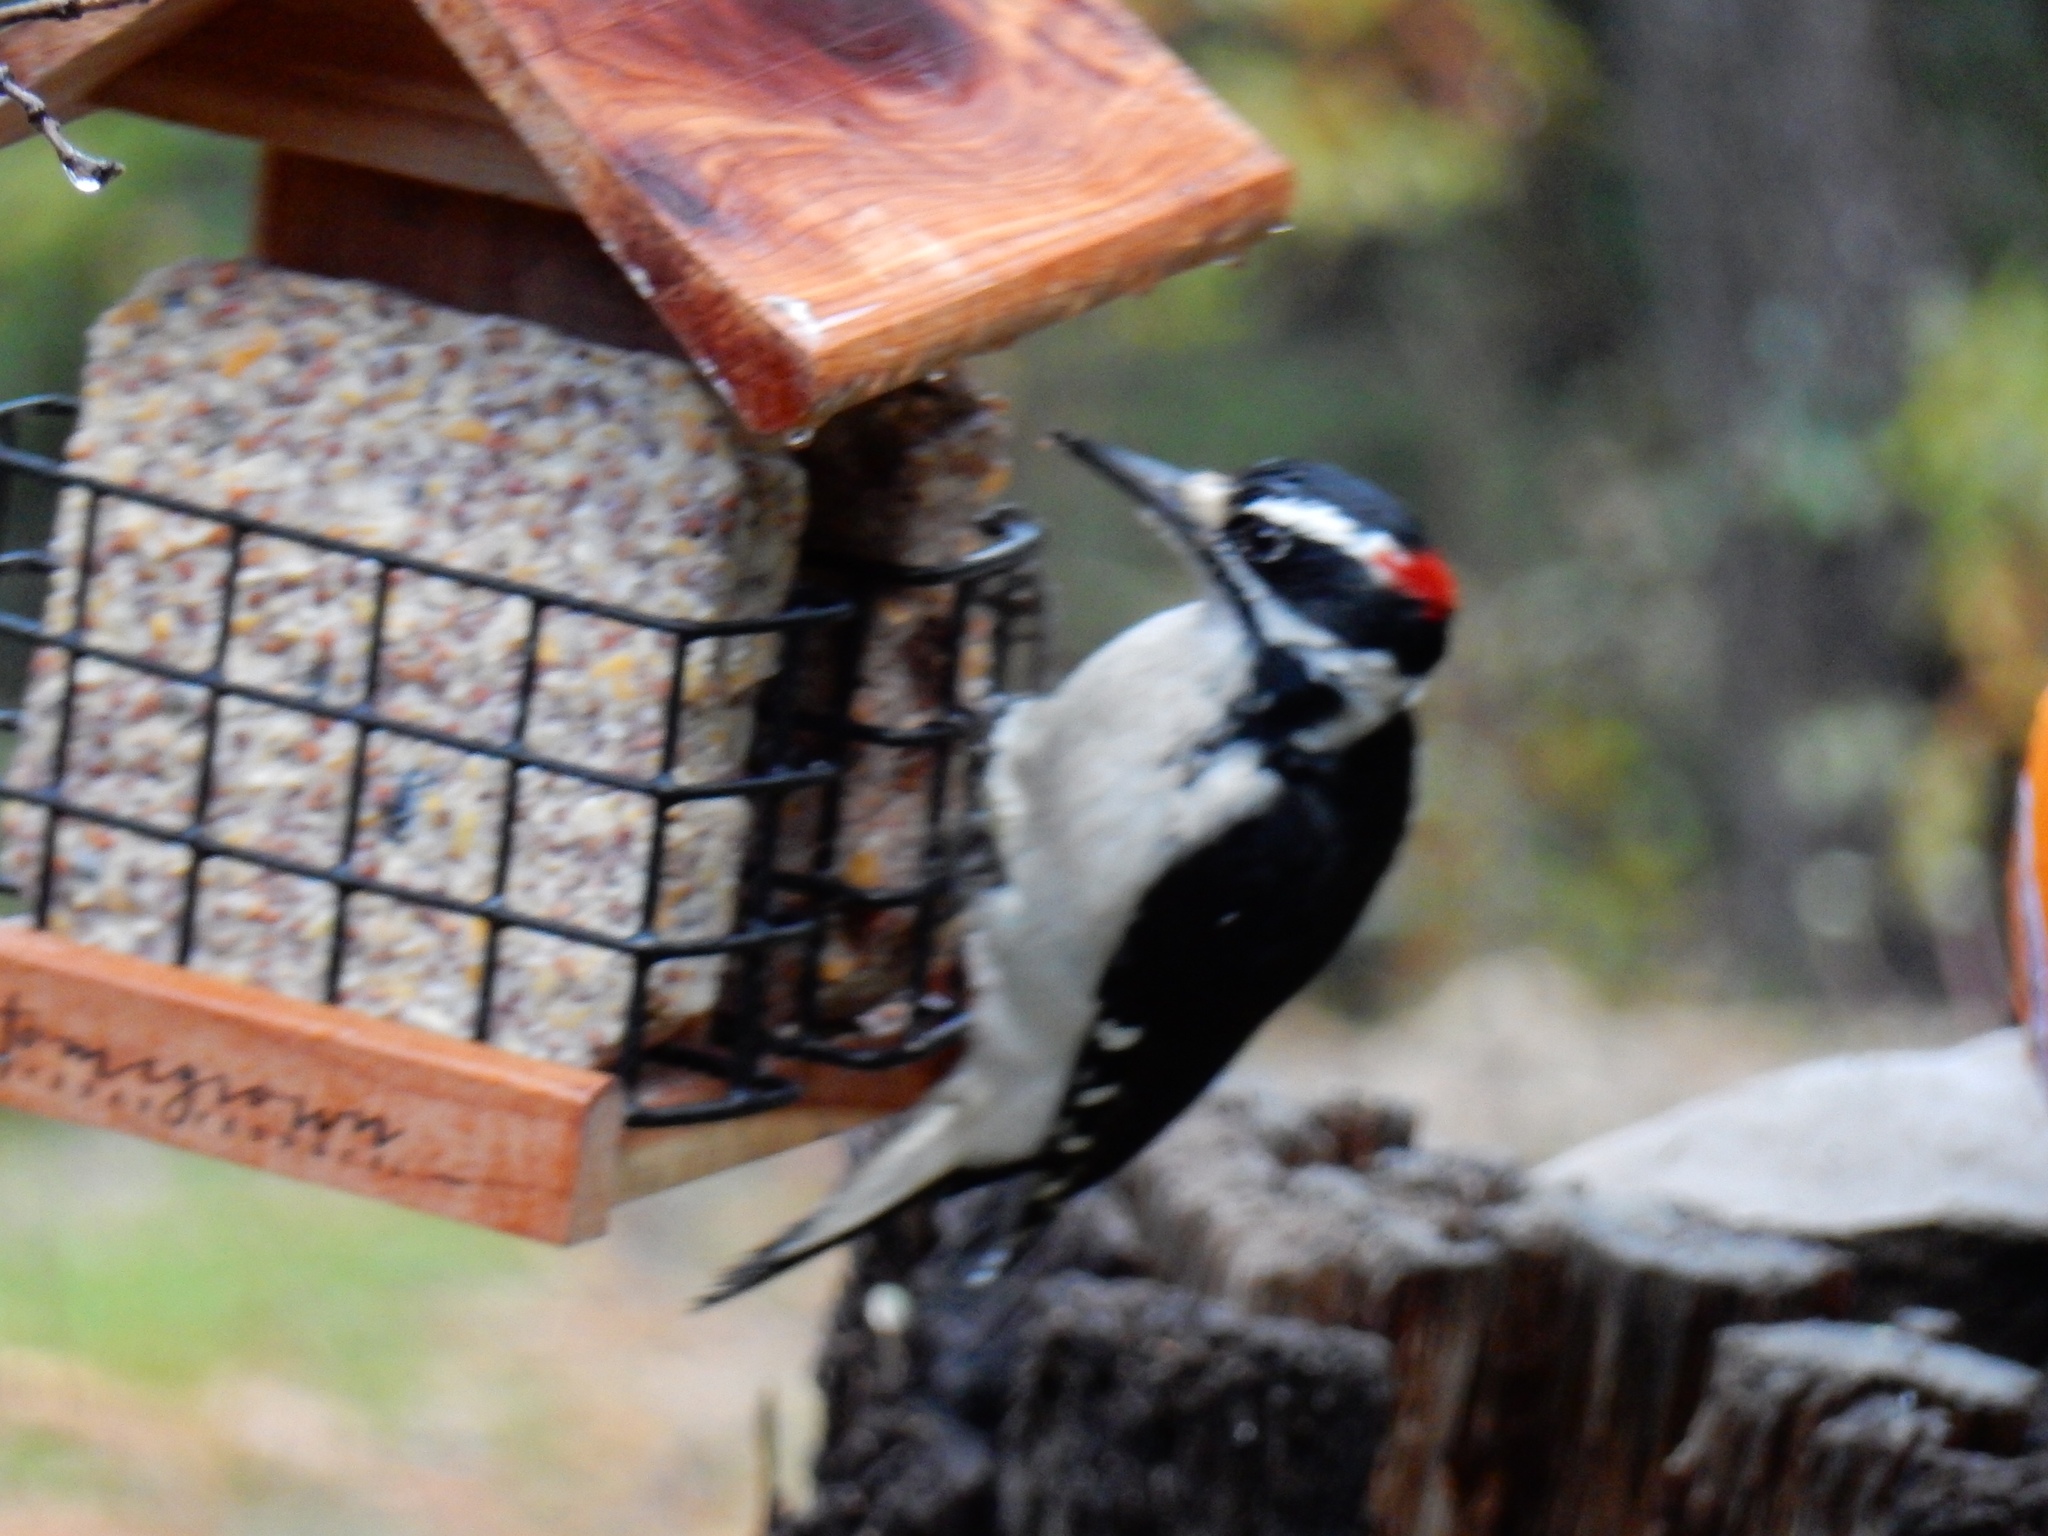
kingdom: Animalia
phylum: Chordata
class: Aves
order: Piciformes
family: Picidae
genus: Leuconotopicus
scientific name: Leuconotopicus villosus
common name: Hairy woodpecker
